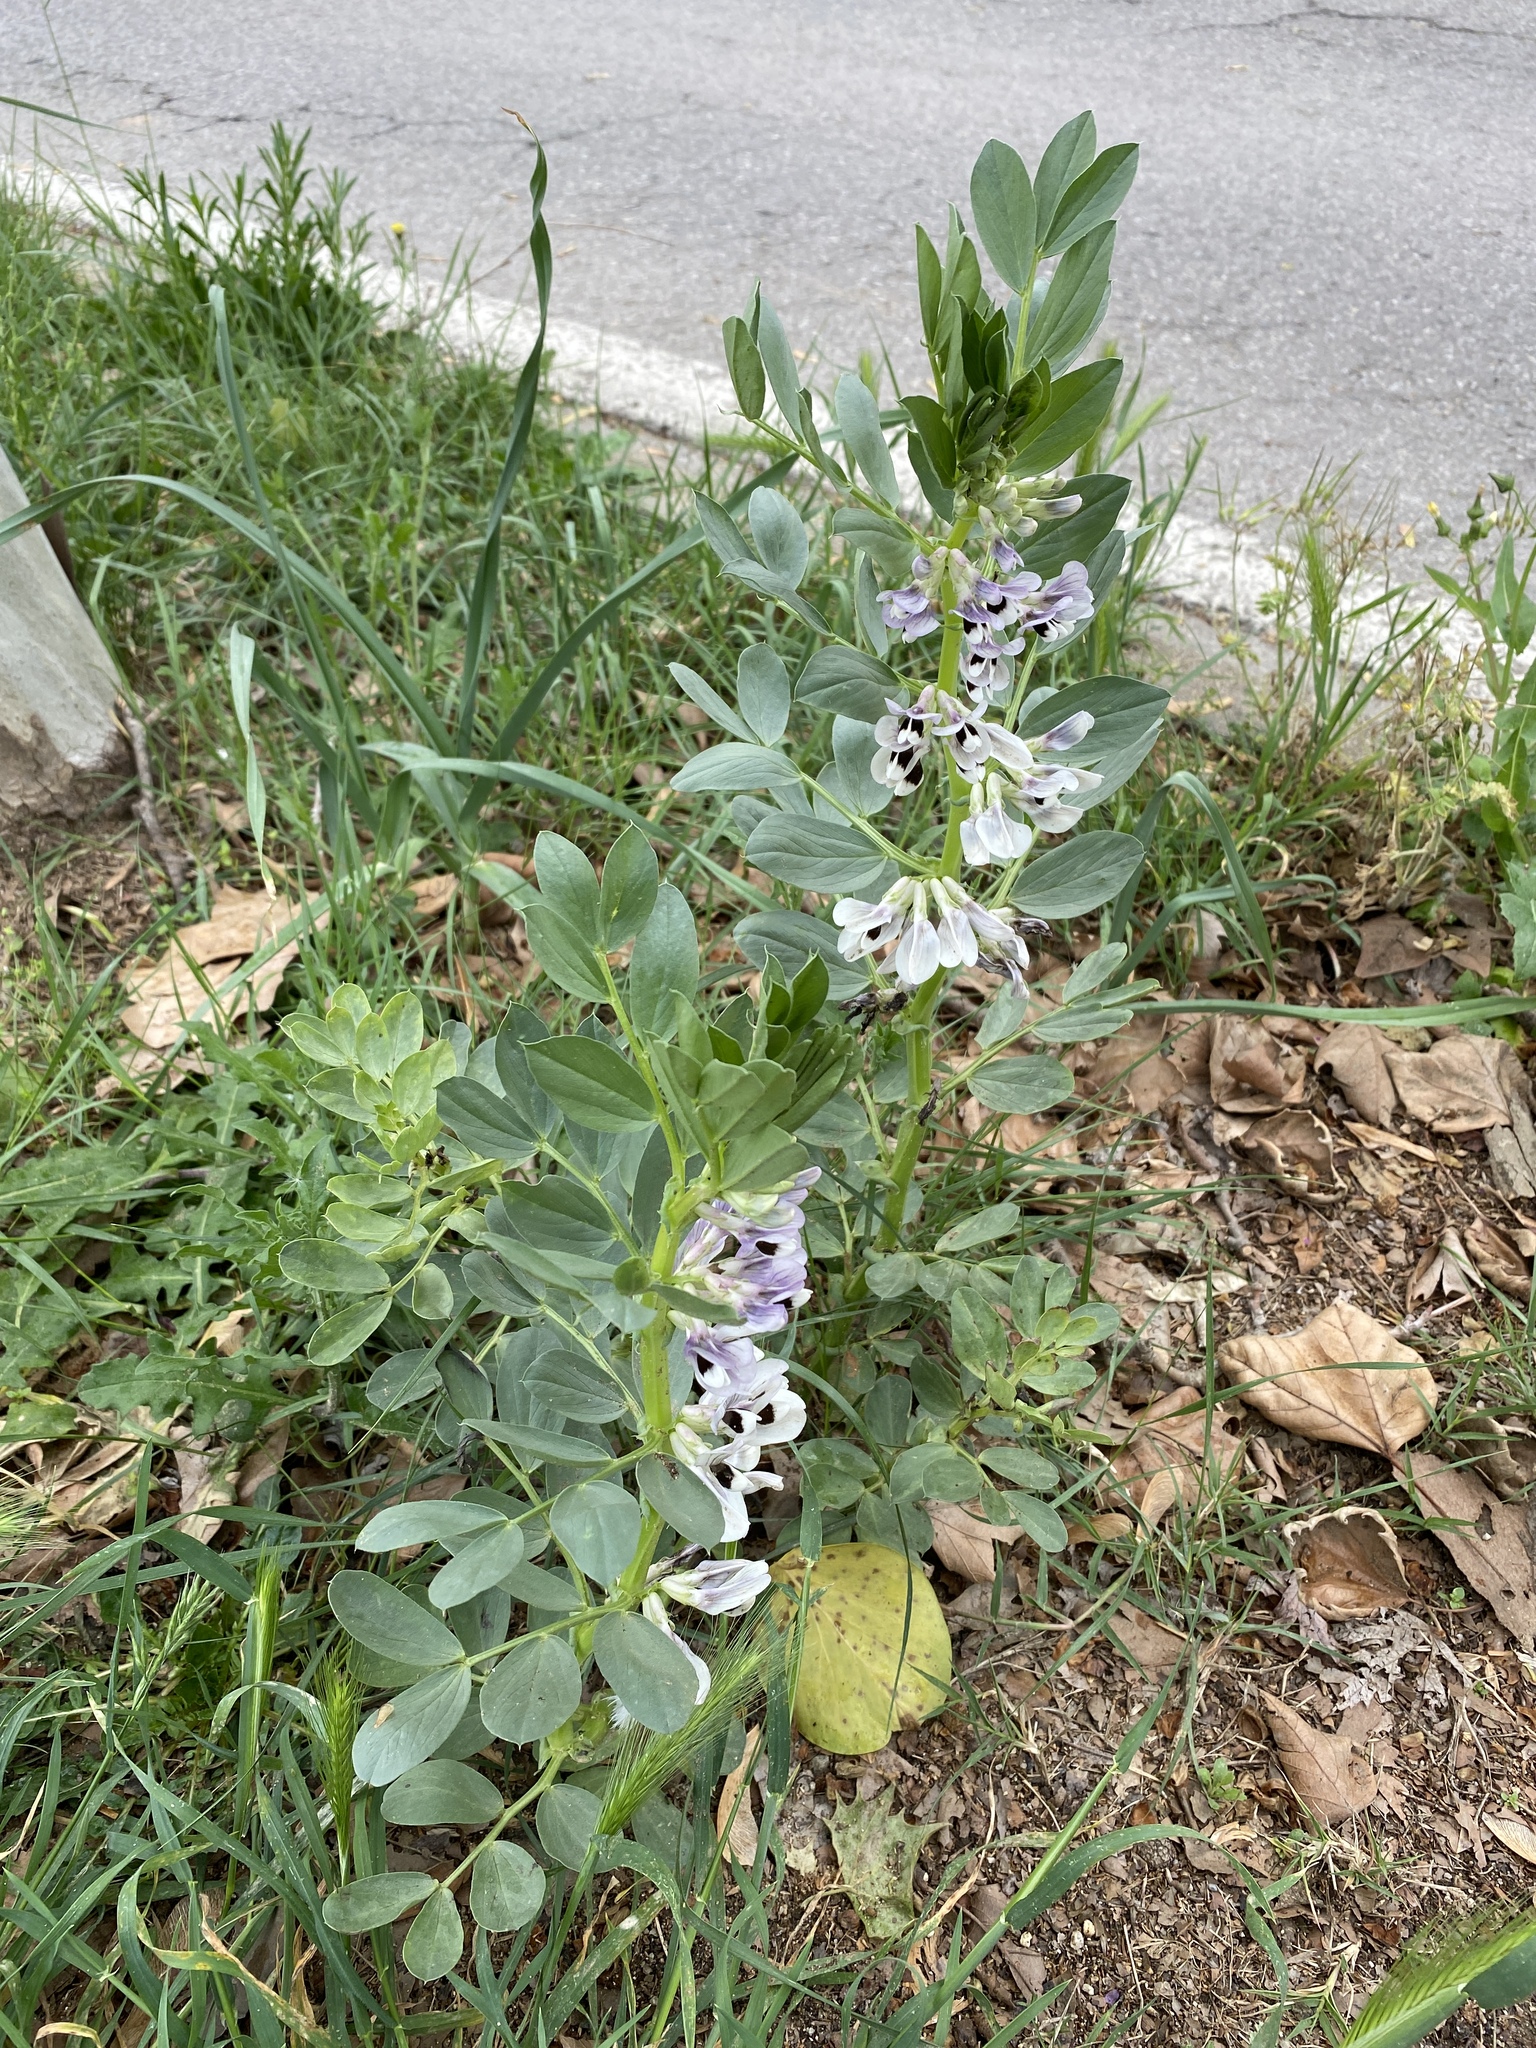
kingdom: Plantae
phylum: Tracheophyta
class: Magnoliopsida
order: Fabales
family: Fabaceae
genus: Vicia
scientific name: Vicia faba
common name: Broad bean
